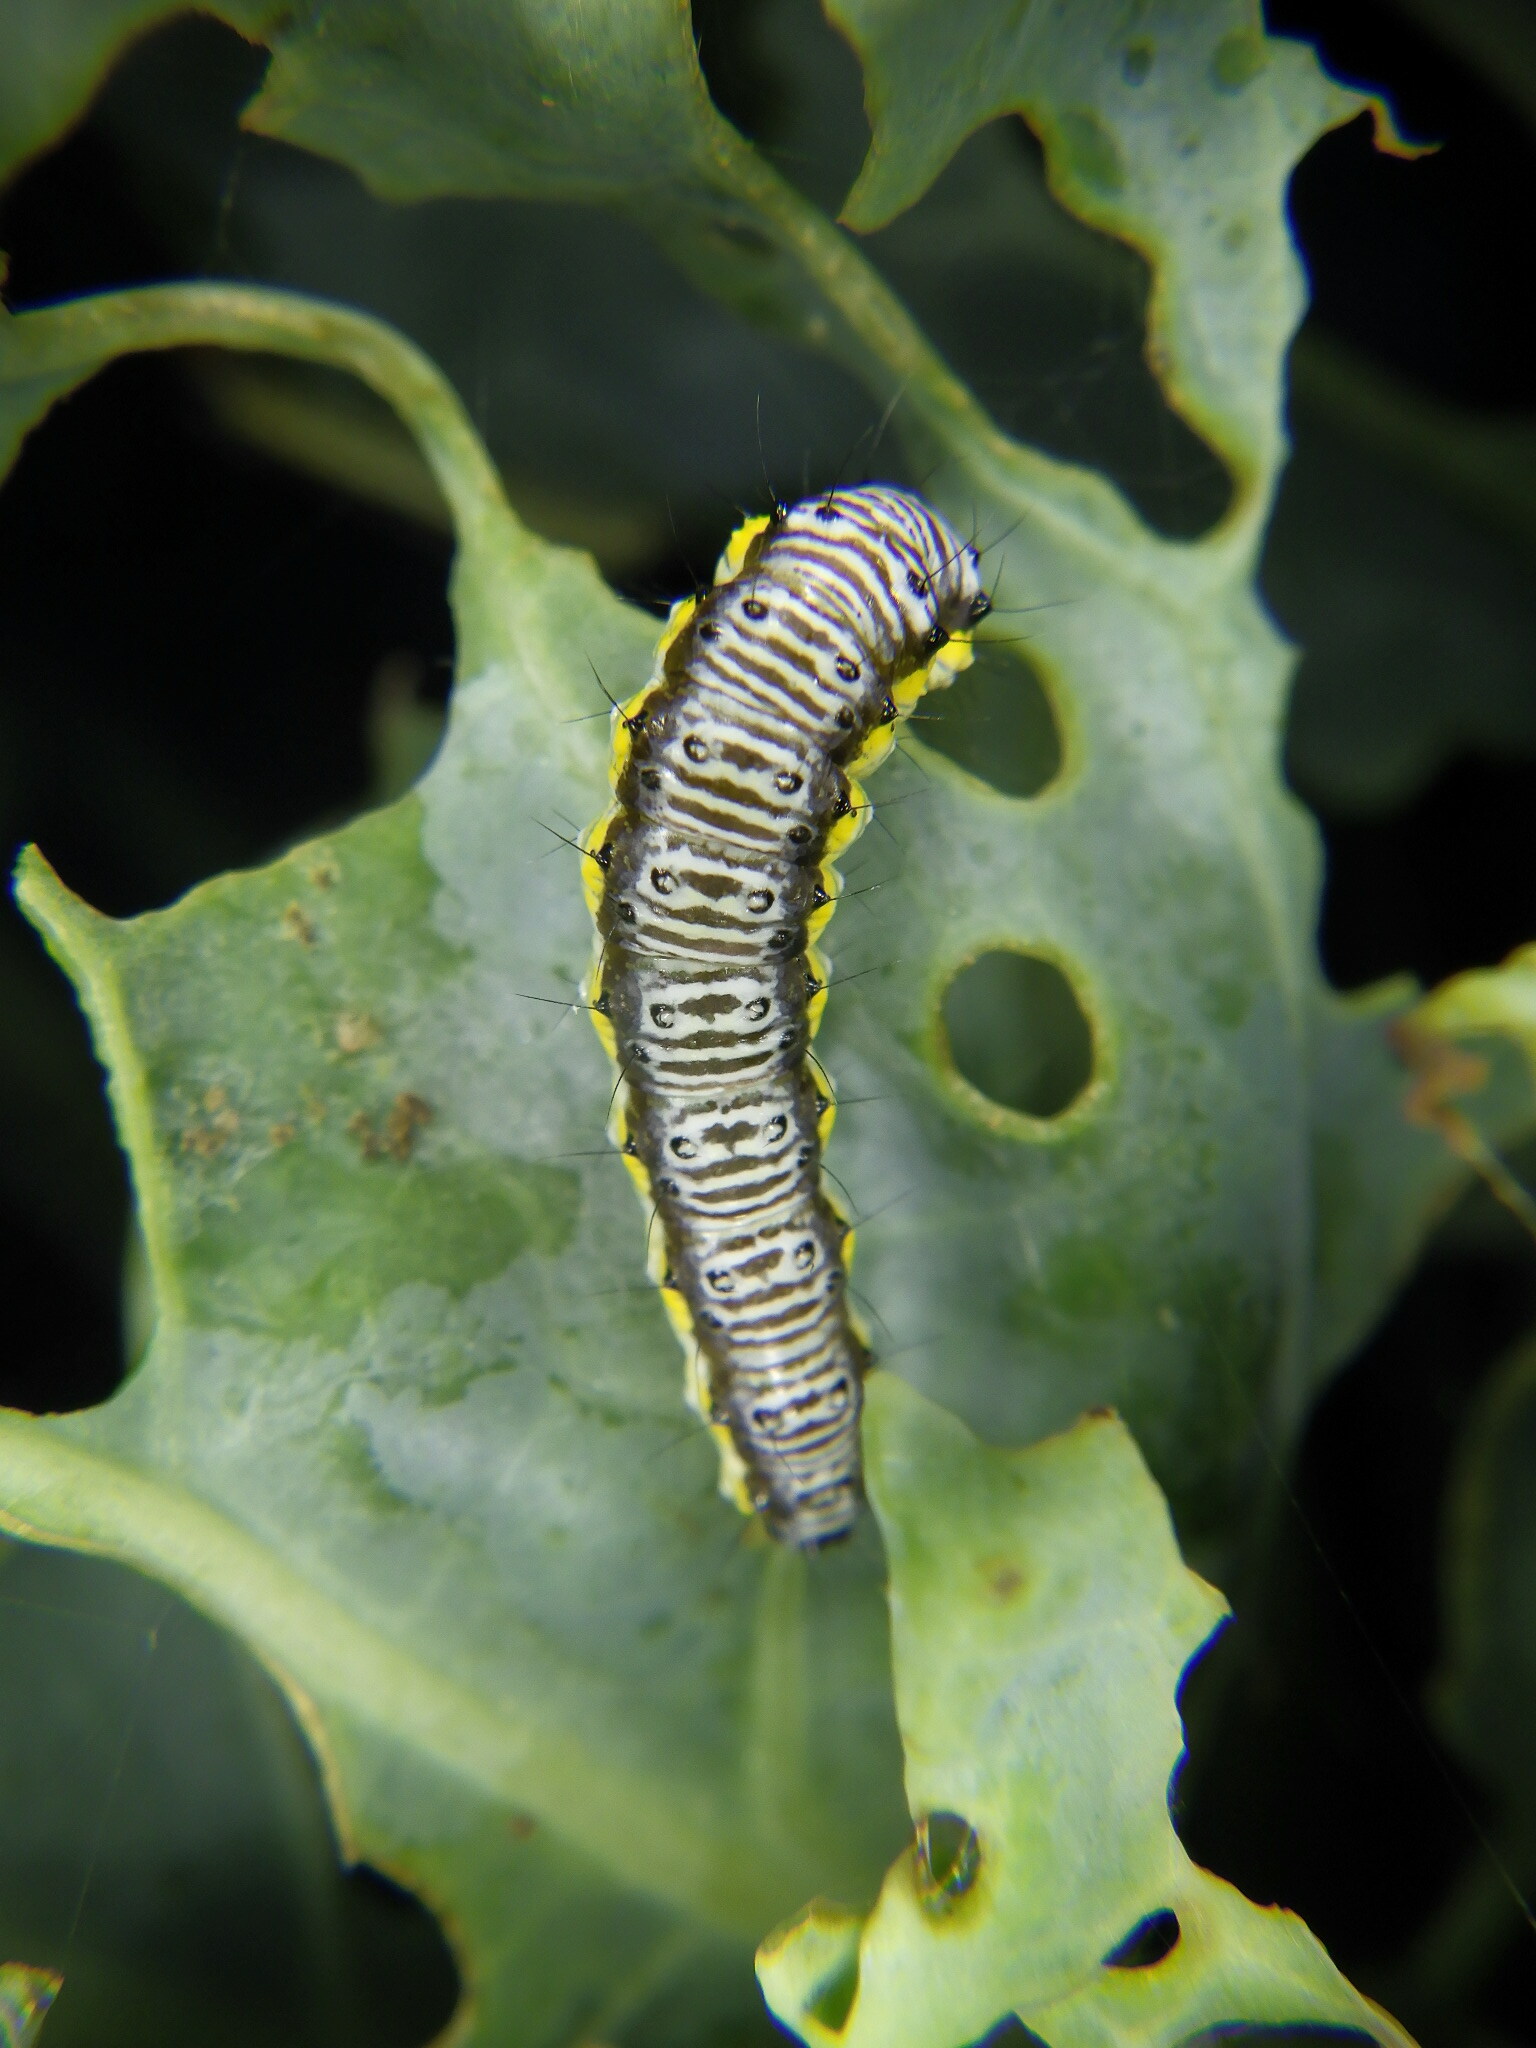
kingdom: Animalia
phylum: Arthropoda
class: Insecta
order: Lepidoptera
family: Crambidae
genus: Evergestis
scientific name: Evergestis rimosalis
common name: Cross-striped cabbageworm moth
